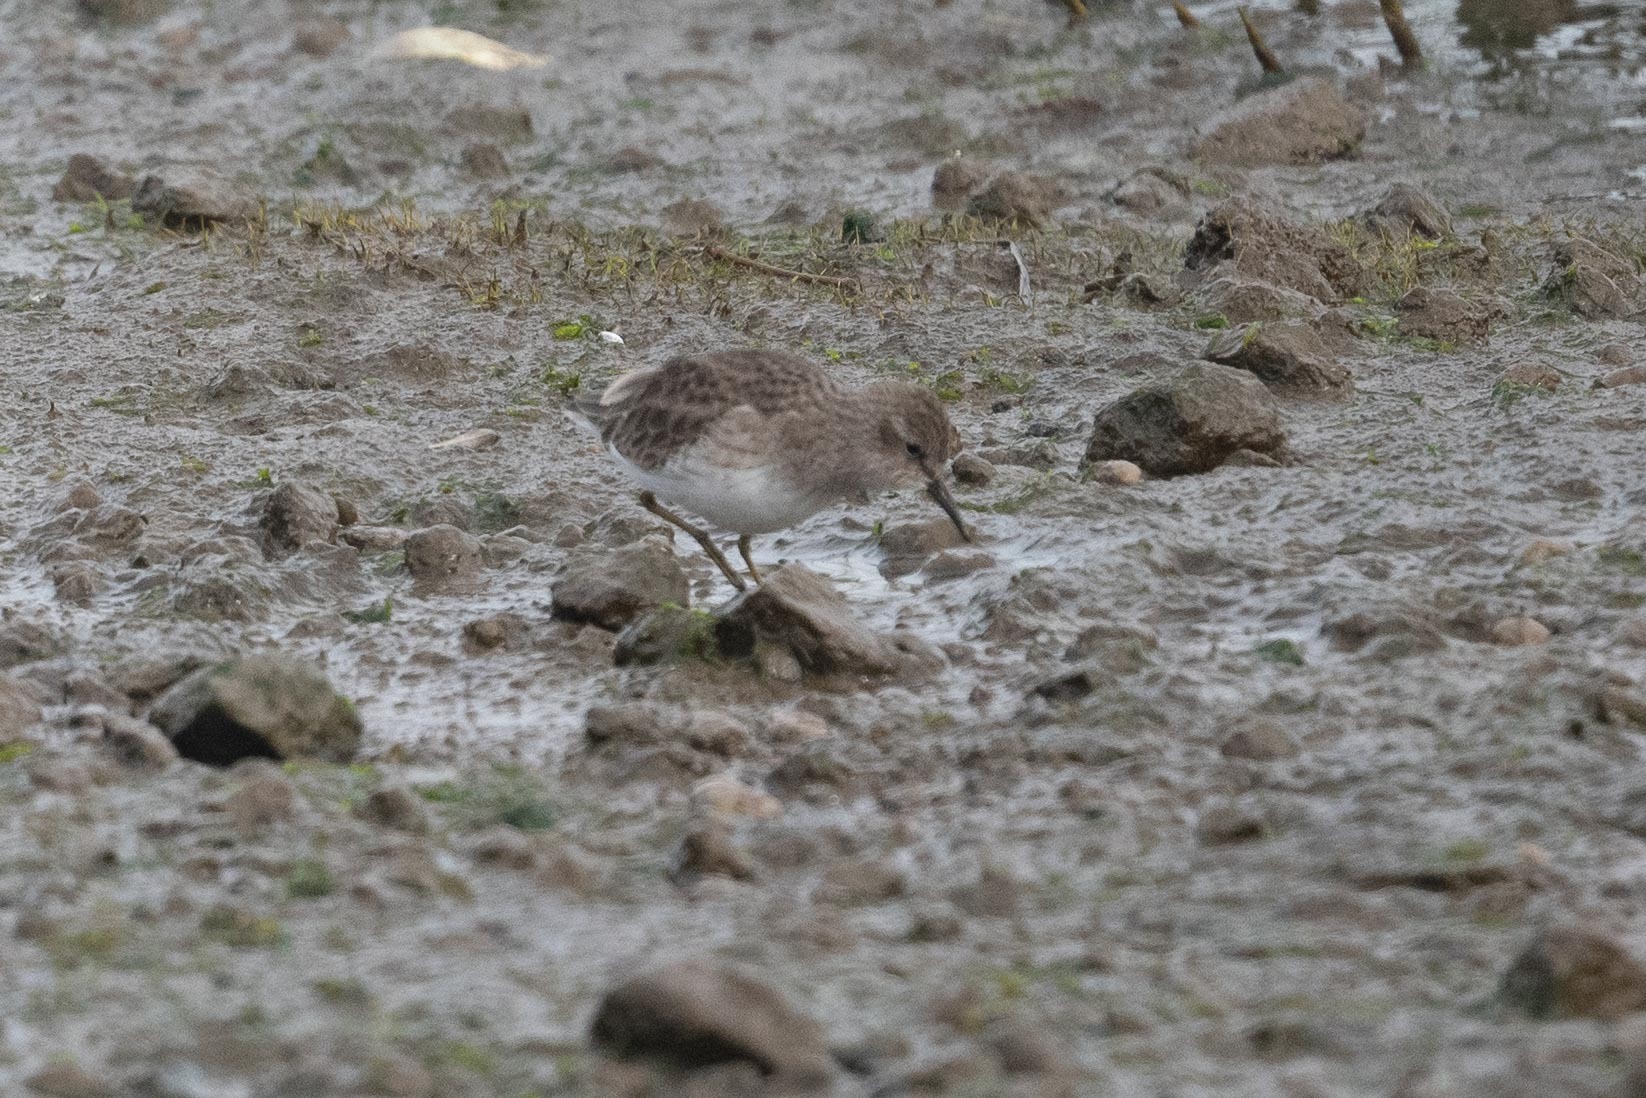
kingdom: Animalia
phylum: Chordata
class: Aves
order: Charadriiformes
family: Scolopacidae
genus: Calidris
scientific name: Calidris minutilla
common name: Least sandpiper
